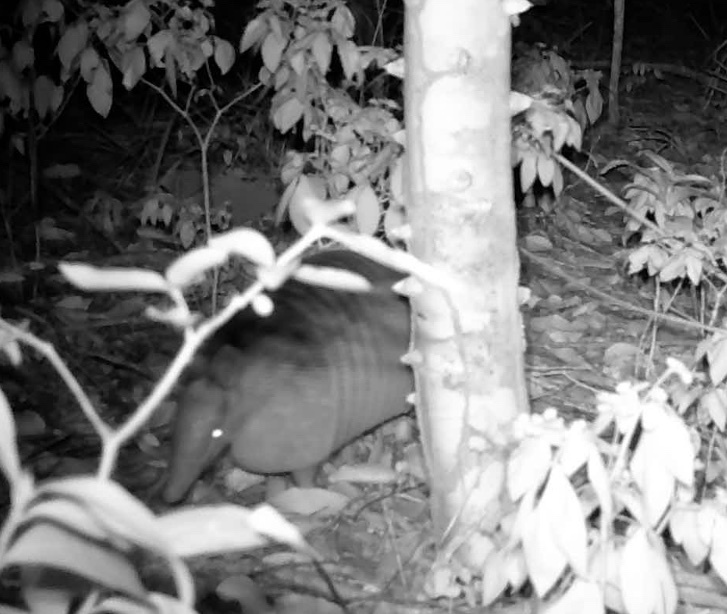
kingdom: Animalia
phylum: Chordata
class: Mammalia
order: Cingulata
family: Dasypodidae
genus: Dasypus
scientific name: Dasypus novemcinctus
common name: Nine-banded armadillo
